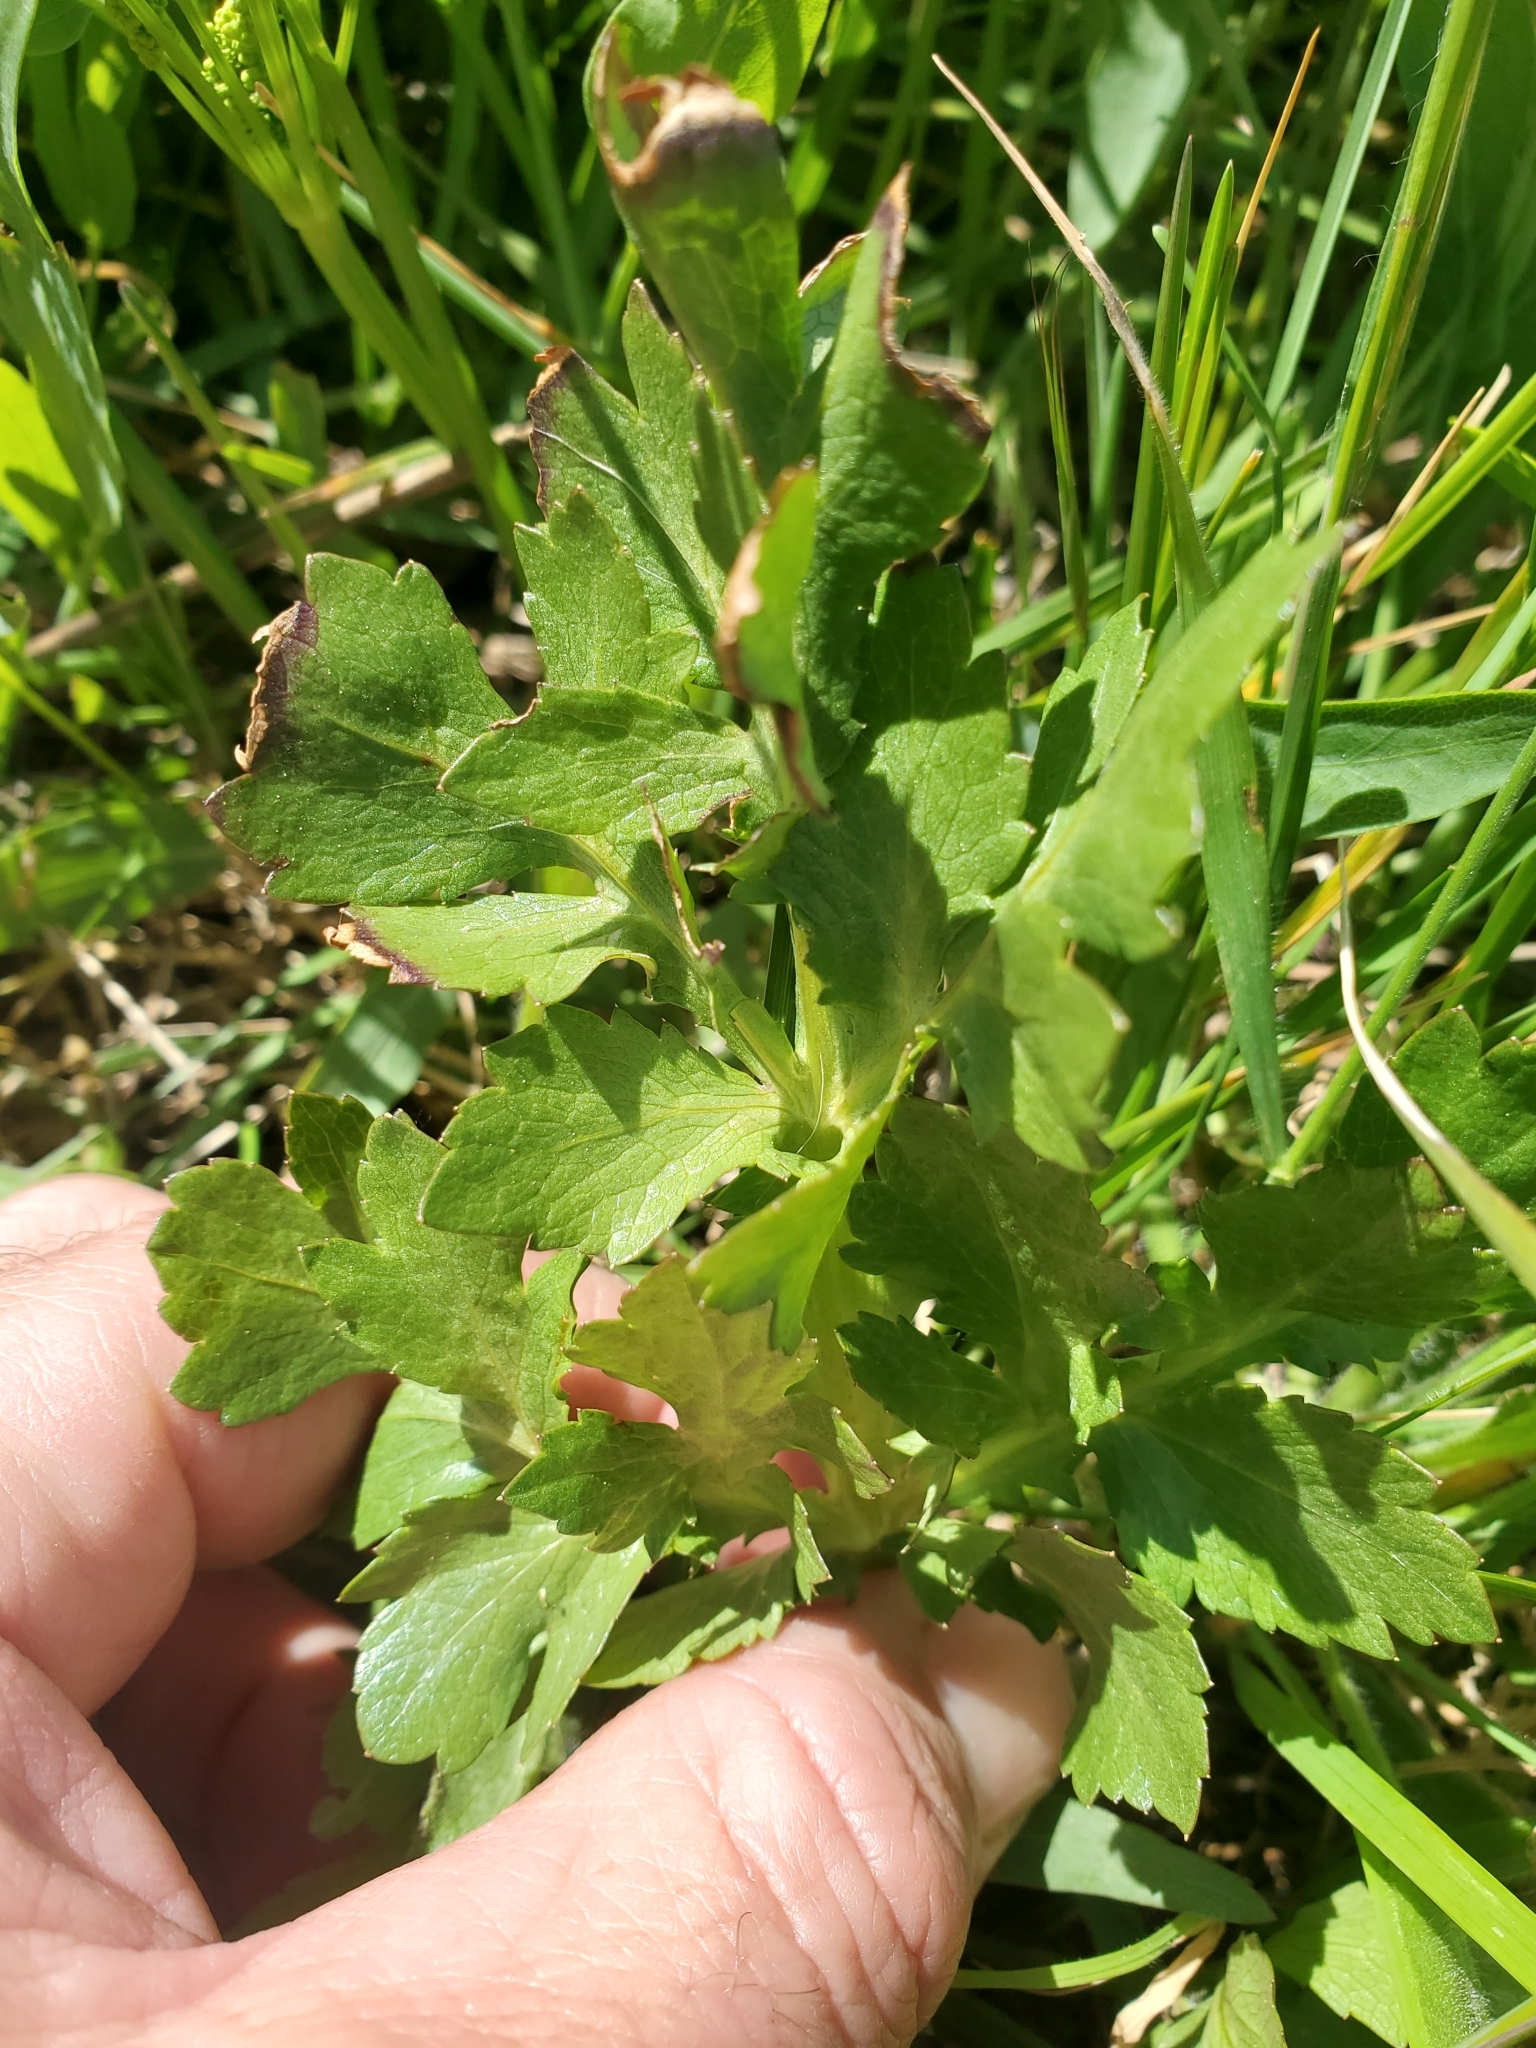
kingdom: Plantae
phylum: Tracheophyta
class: Magnoliopsida
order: Apiales
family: Apiaceae
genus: Sanicula
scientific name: Sanicula bipinnatifida
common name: Shoe-buttons
